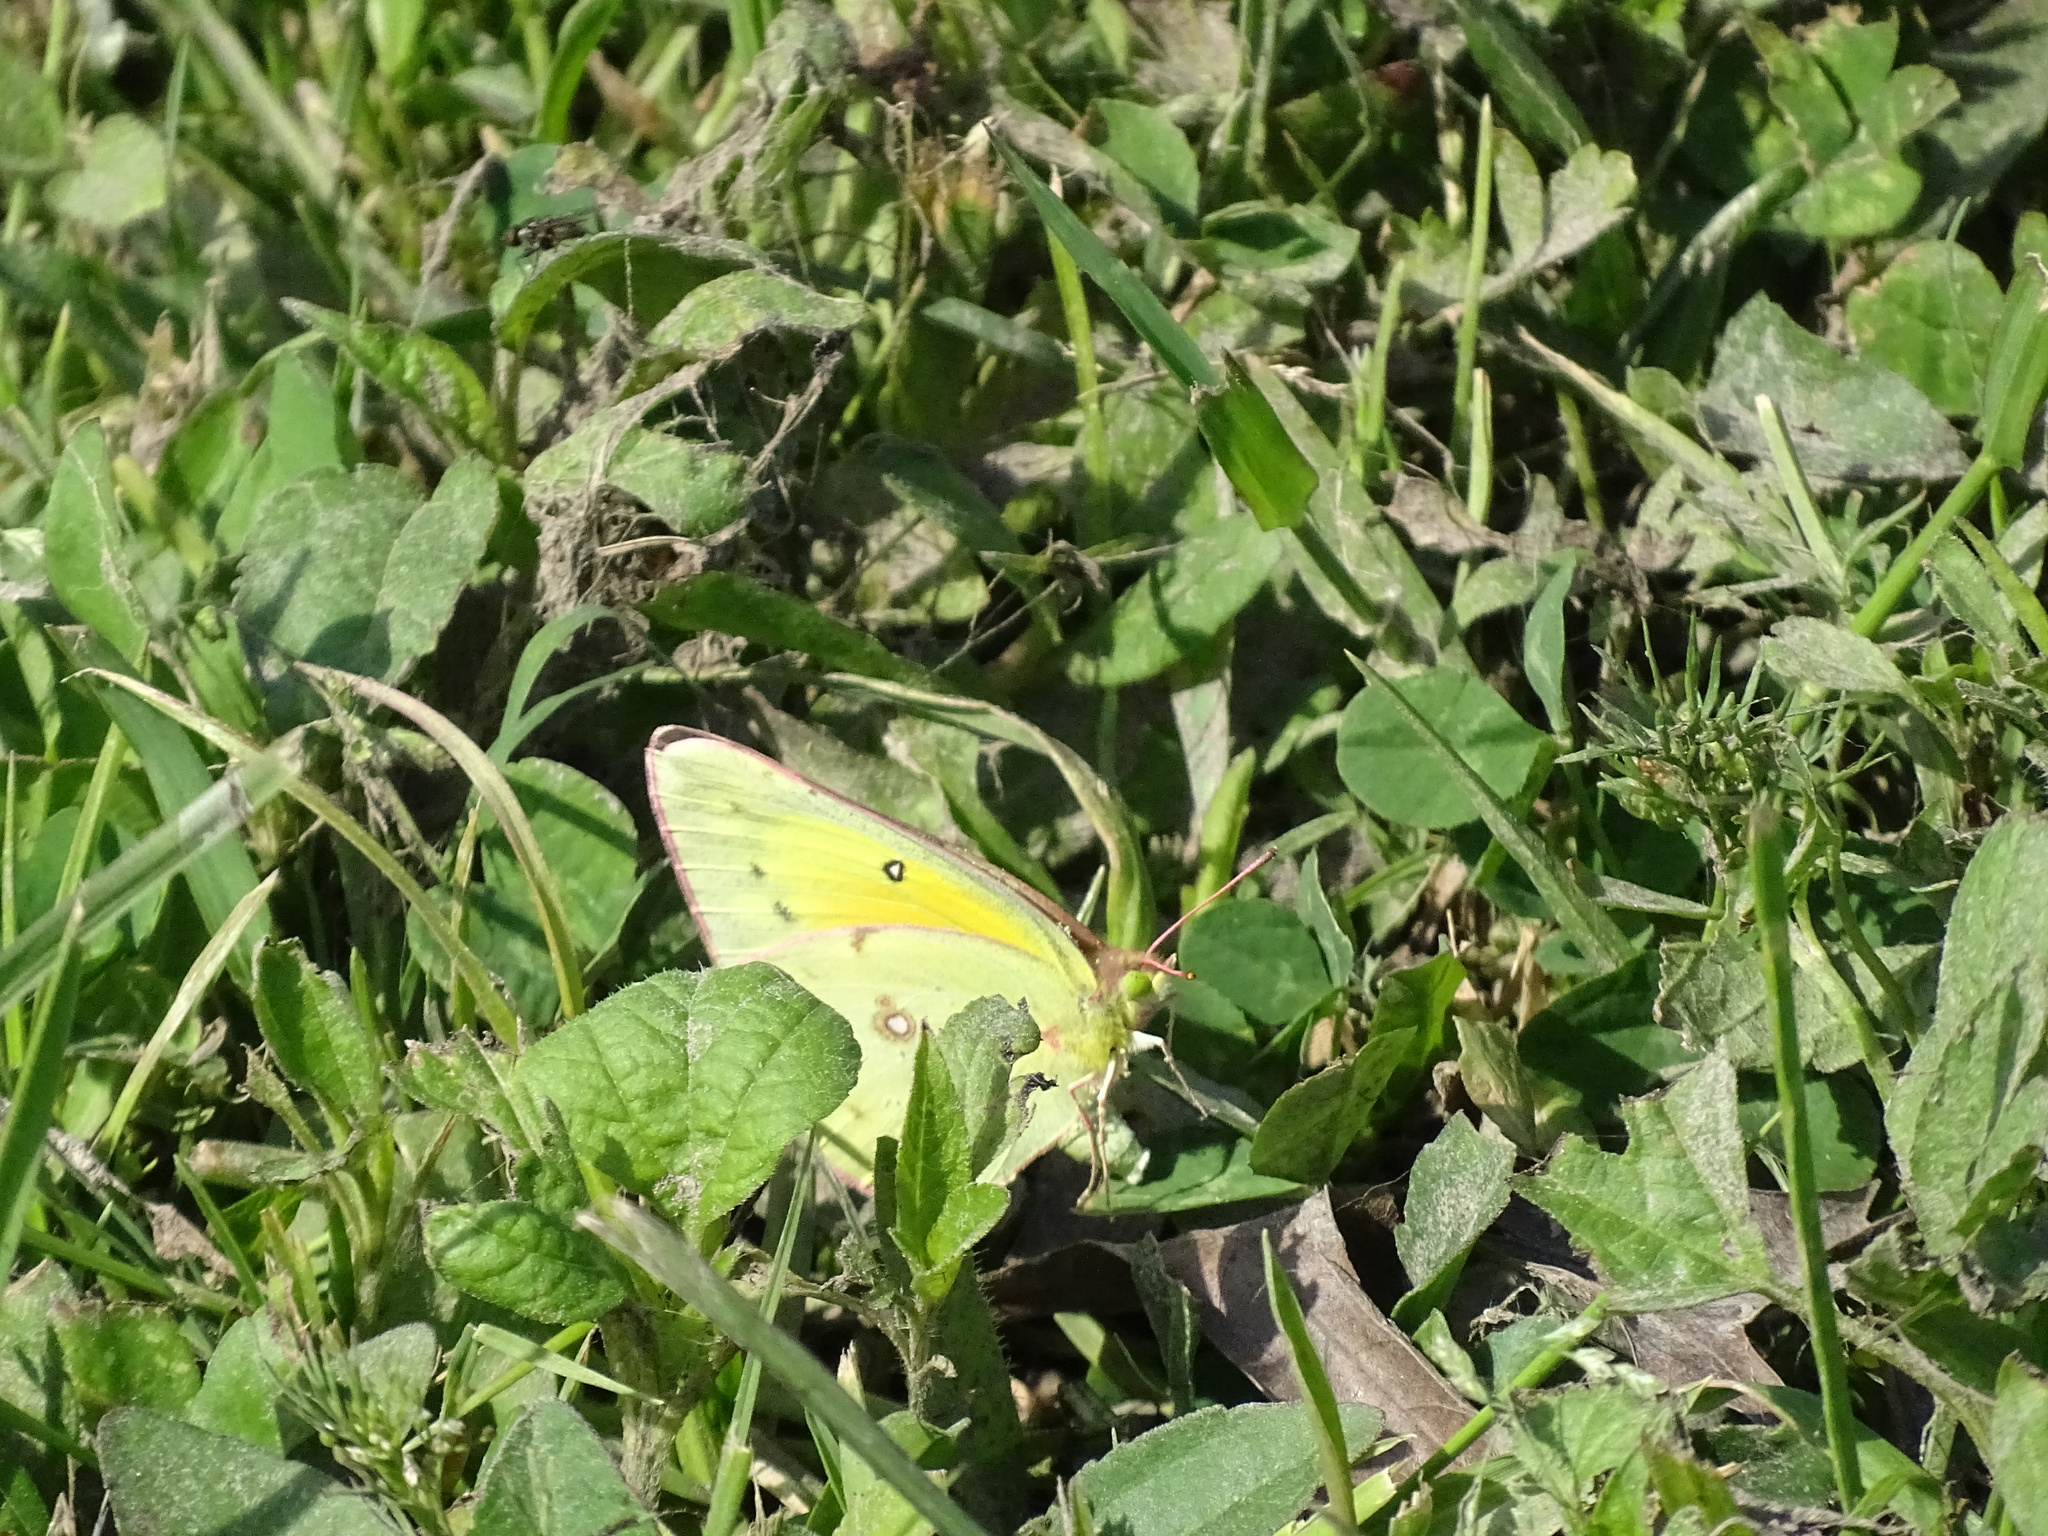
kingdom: Animalia
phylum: Arthropoda
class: Insecta
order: Lepidoptera
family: Pieridae
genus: Colias
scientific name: Colias eurytheme
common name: Alfalfa butterfly
